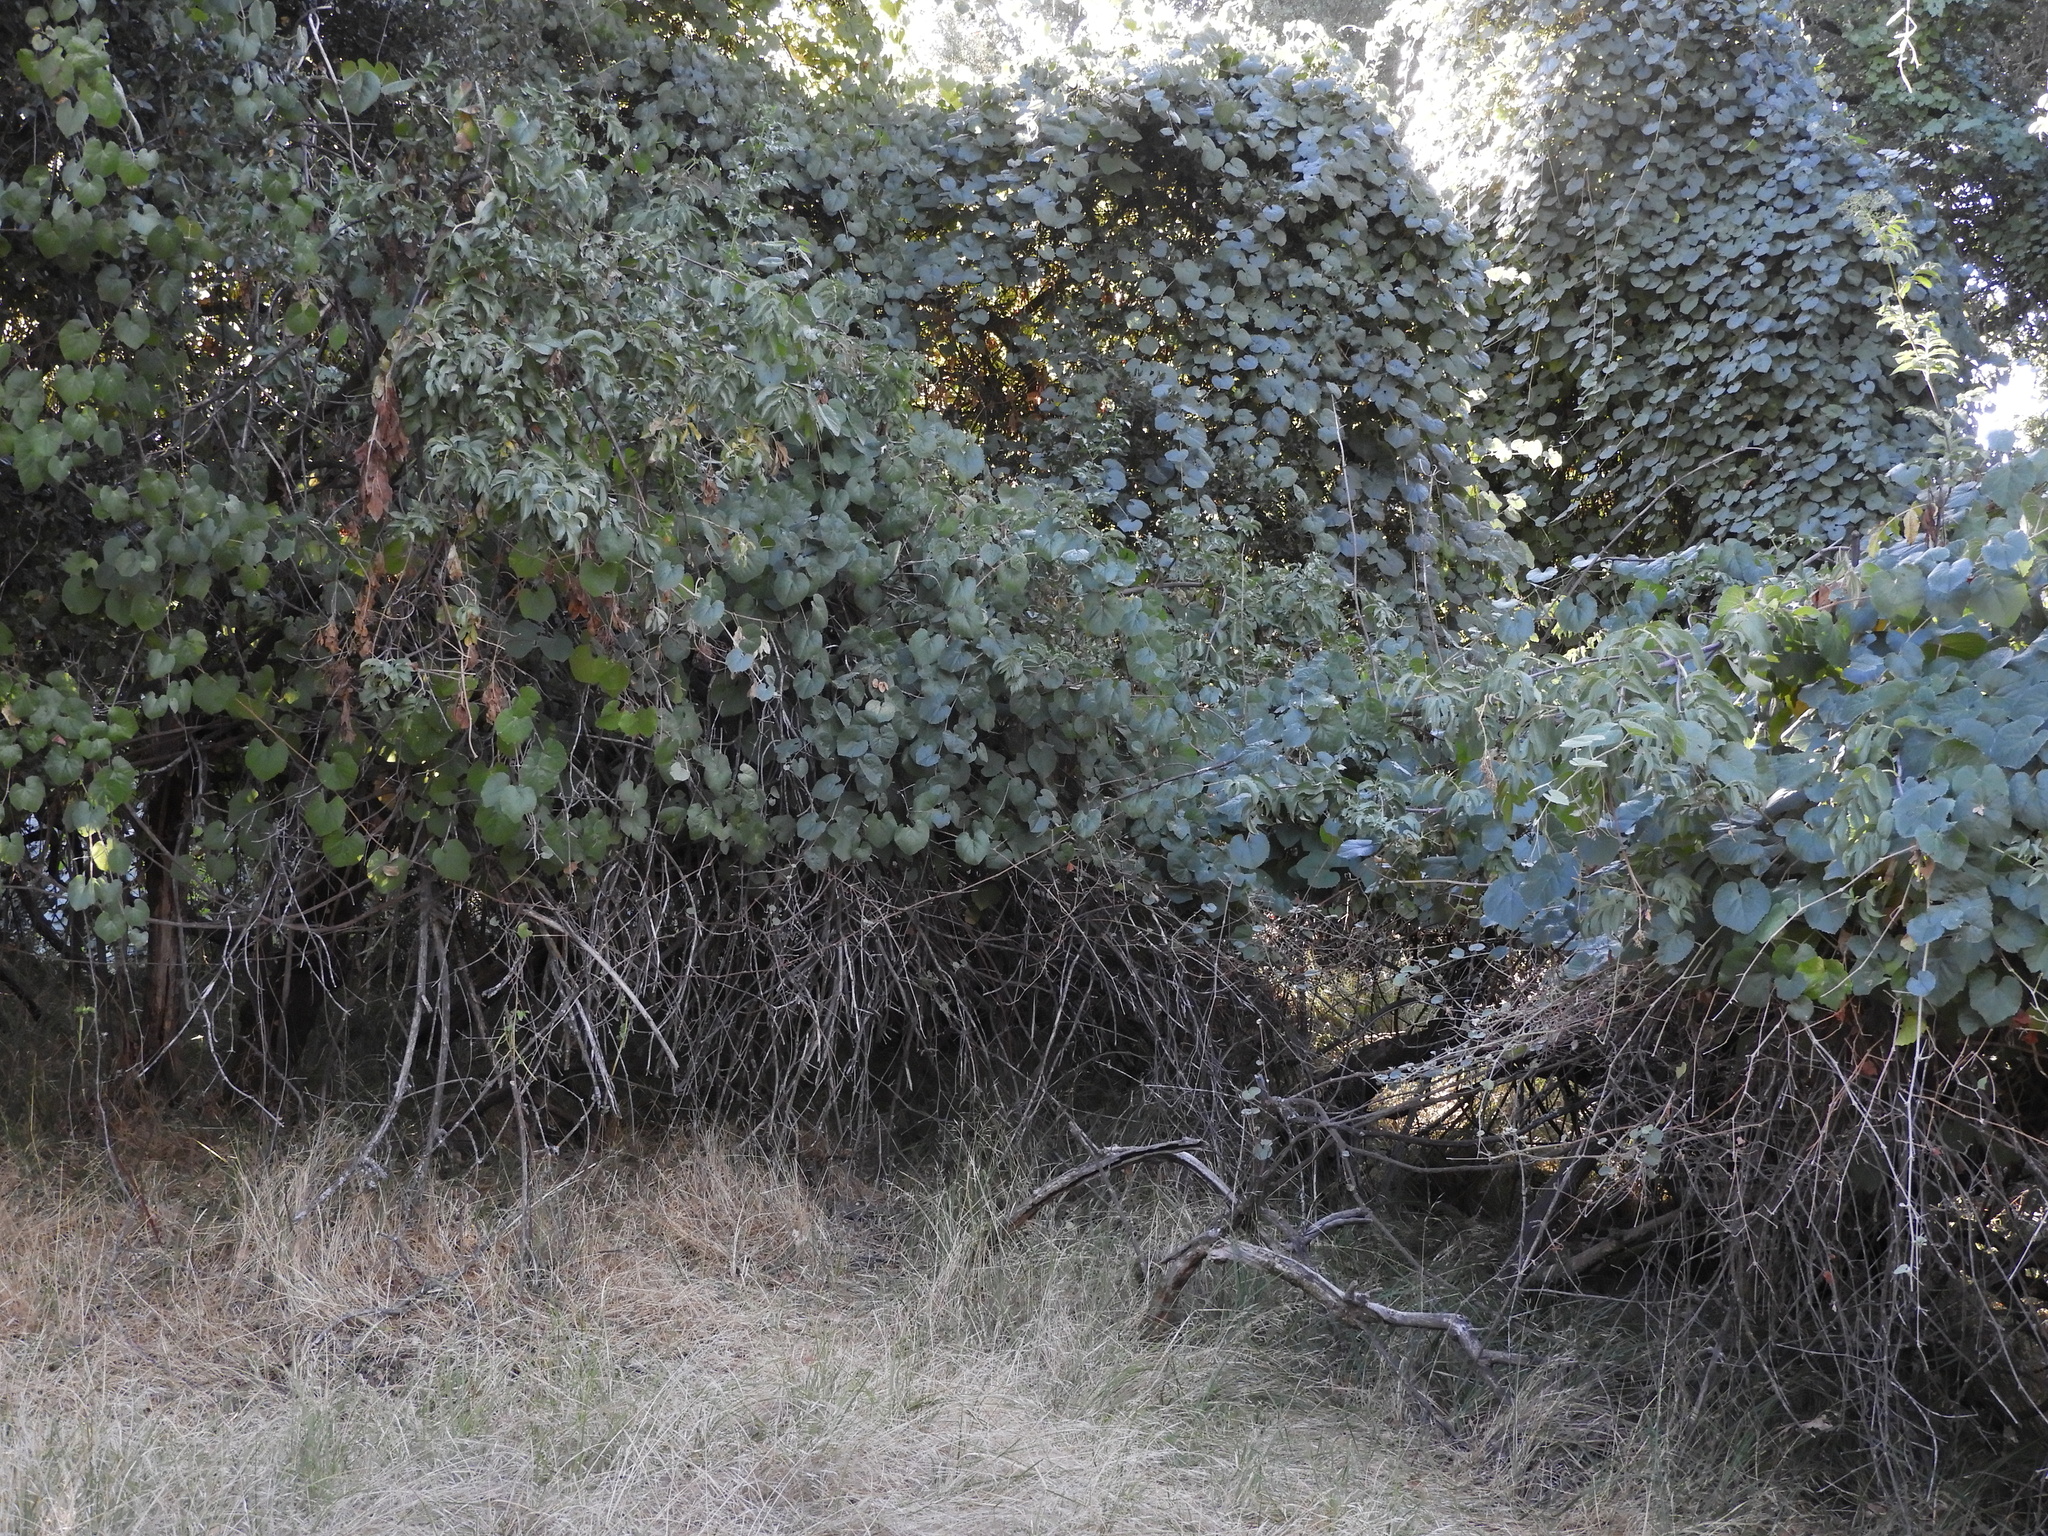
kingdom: Plantae
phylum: Tracheophyta
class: Magnoliopsida
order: Vitales
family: Vitaceae
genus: Vitis
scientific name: Vitis californica
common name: California wild grape
